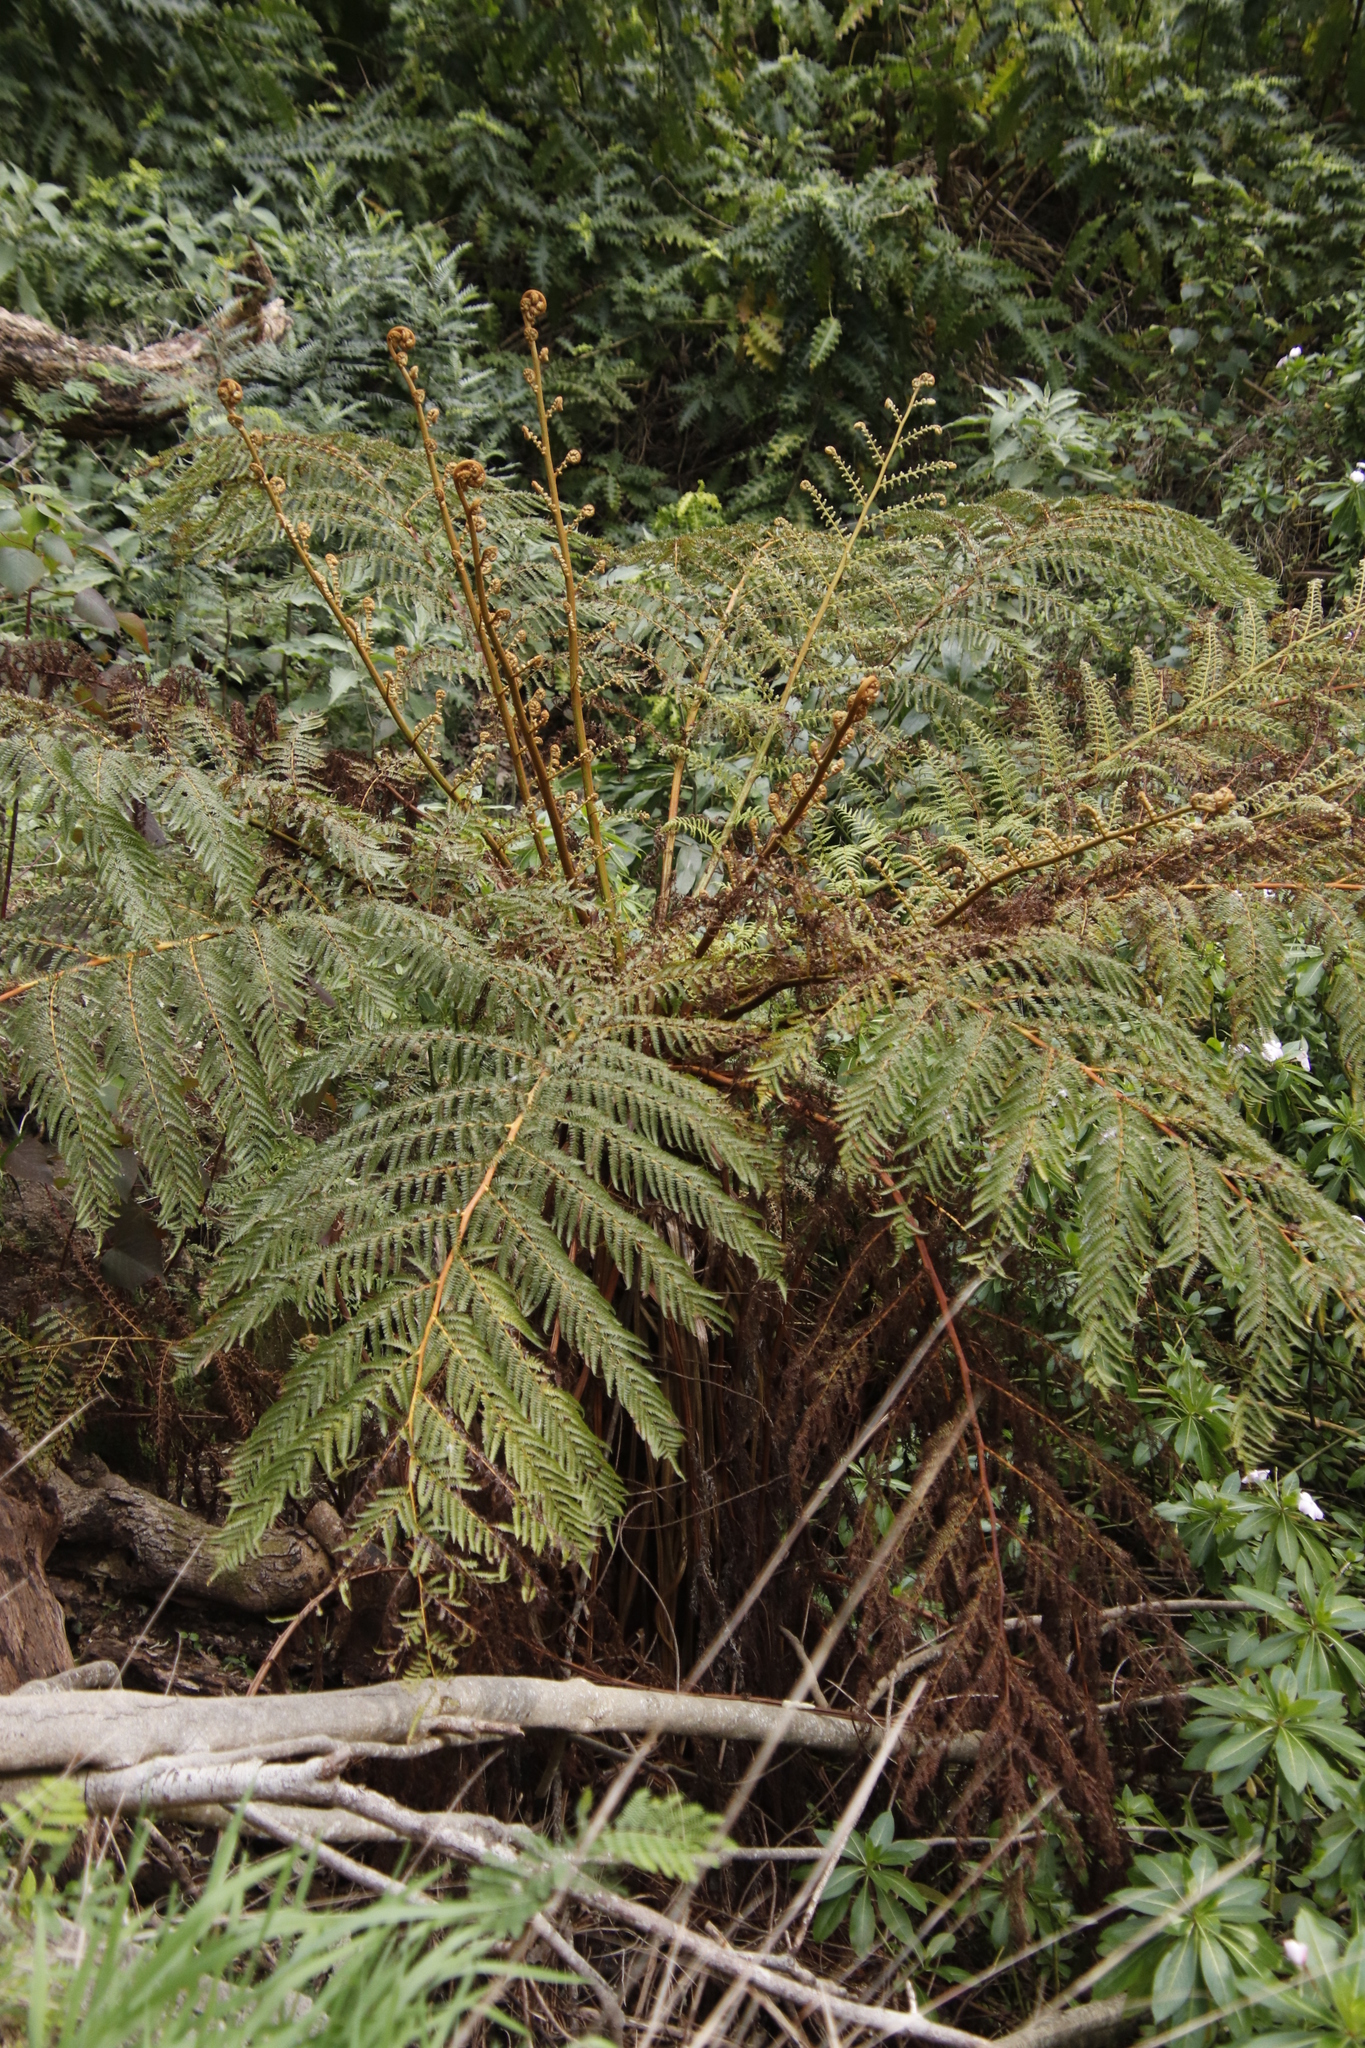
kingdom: Plantae
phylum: Tracheophyta
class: Polypodiopsida
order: Cyatheales
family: Cyatheaceae
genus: Sphaeropteris
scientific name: Sphaeropteris cooperi
